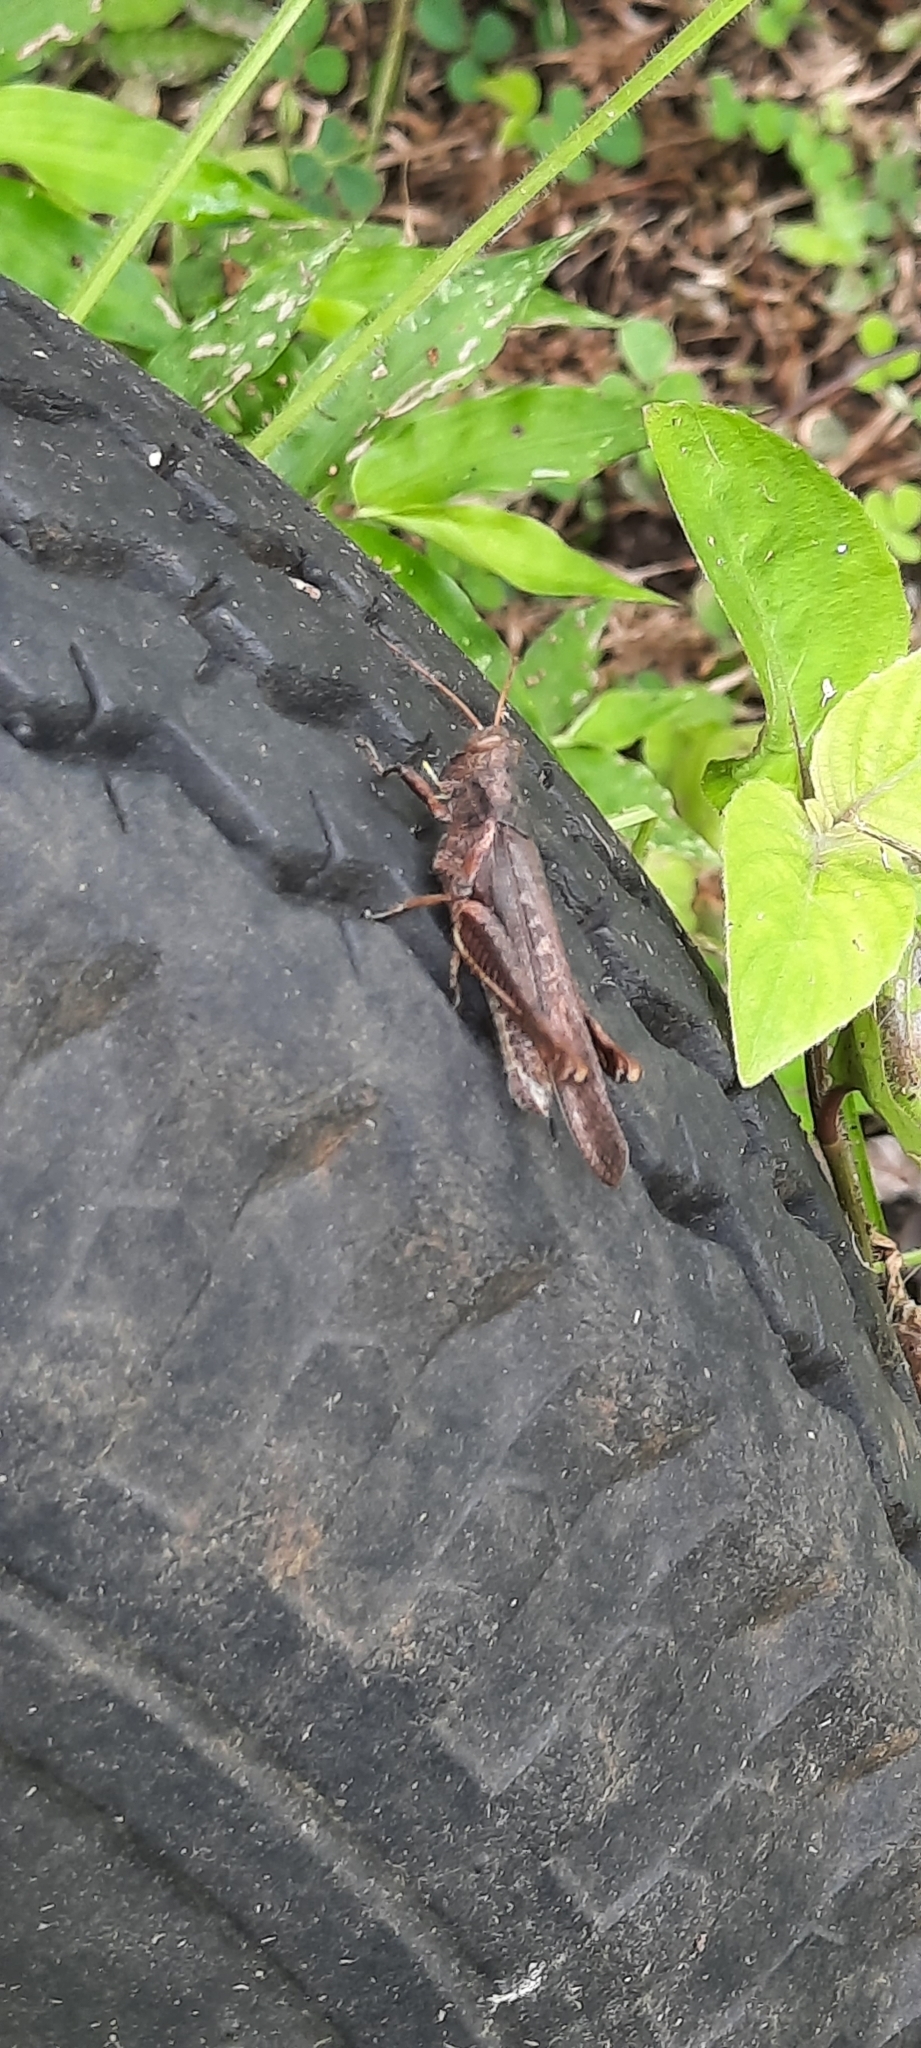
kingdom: Animalia
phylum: Arthropoda
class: Insecta
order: Orthoptera
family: Acrididae
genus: Abracris
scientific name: Abracris flavolineata
